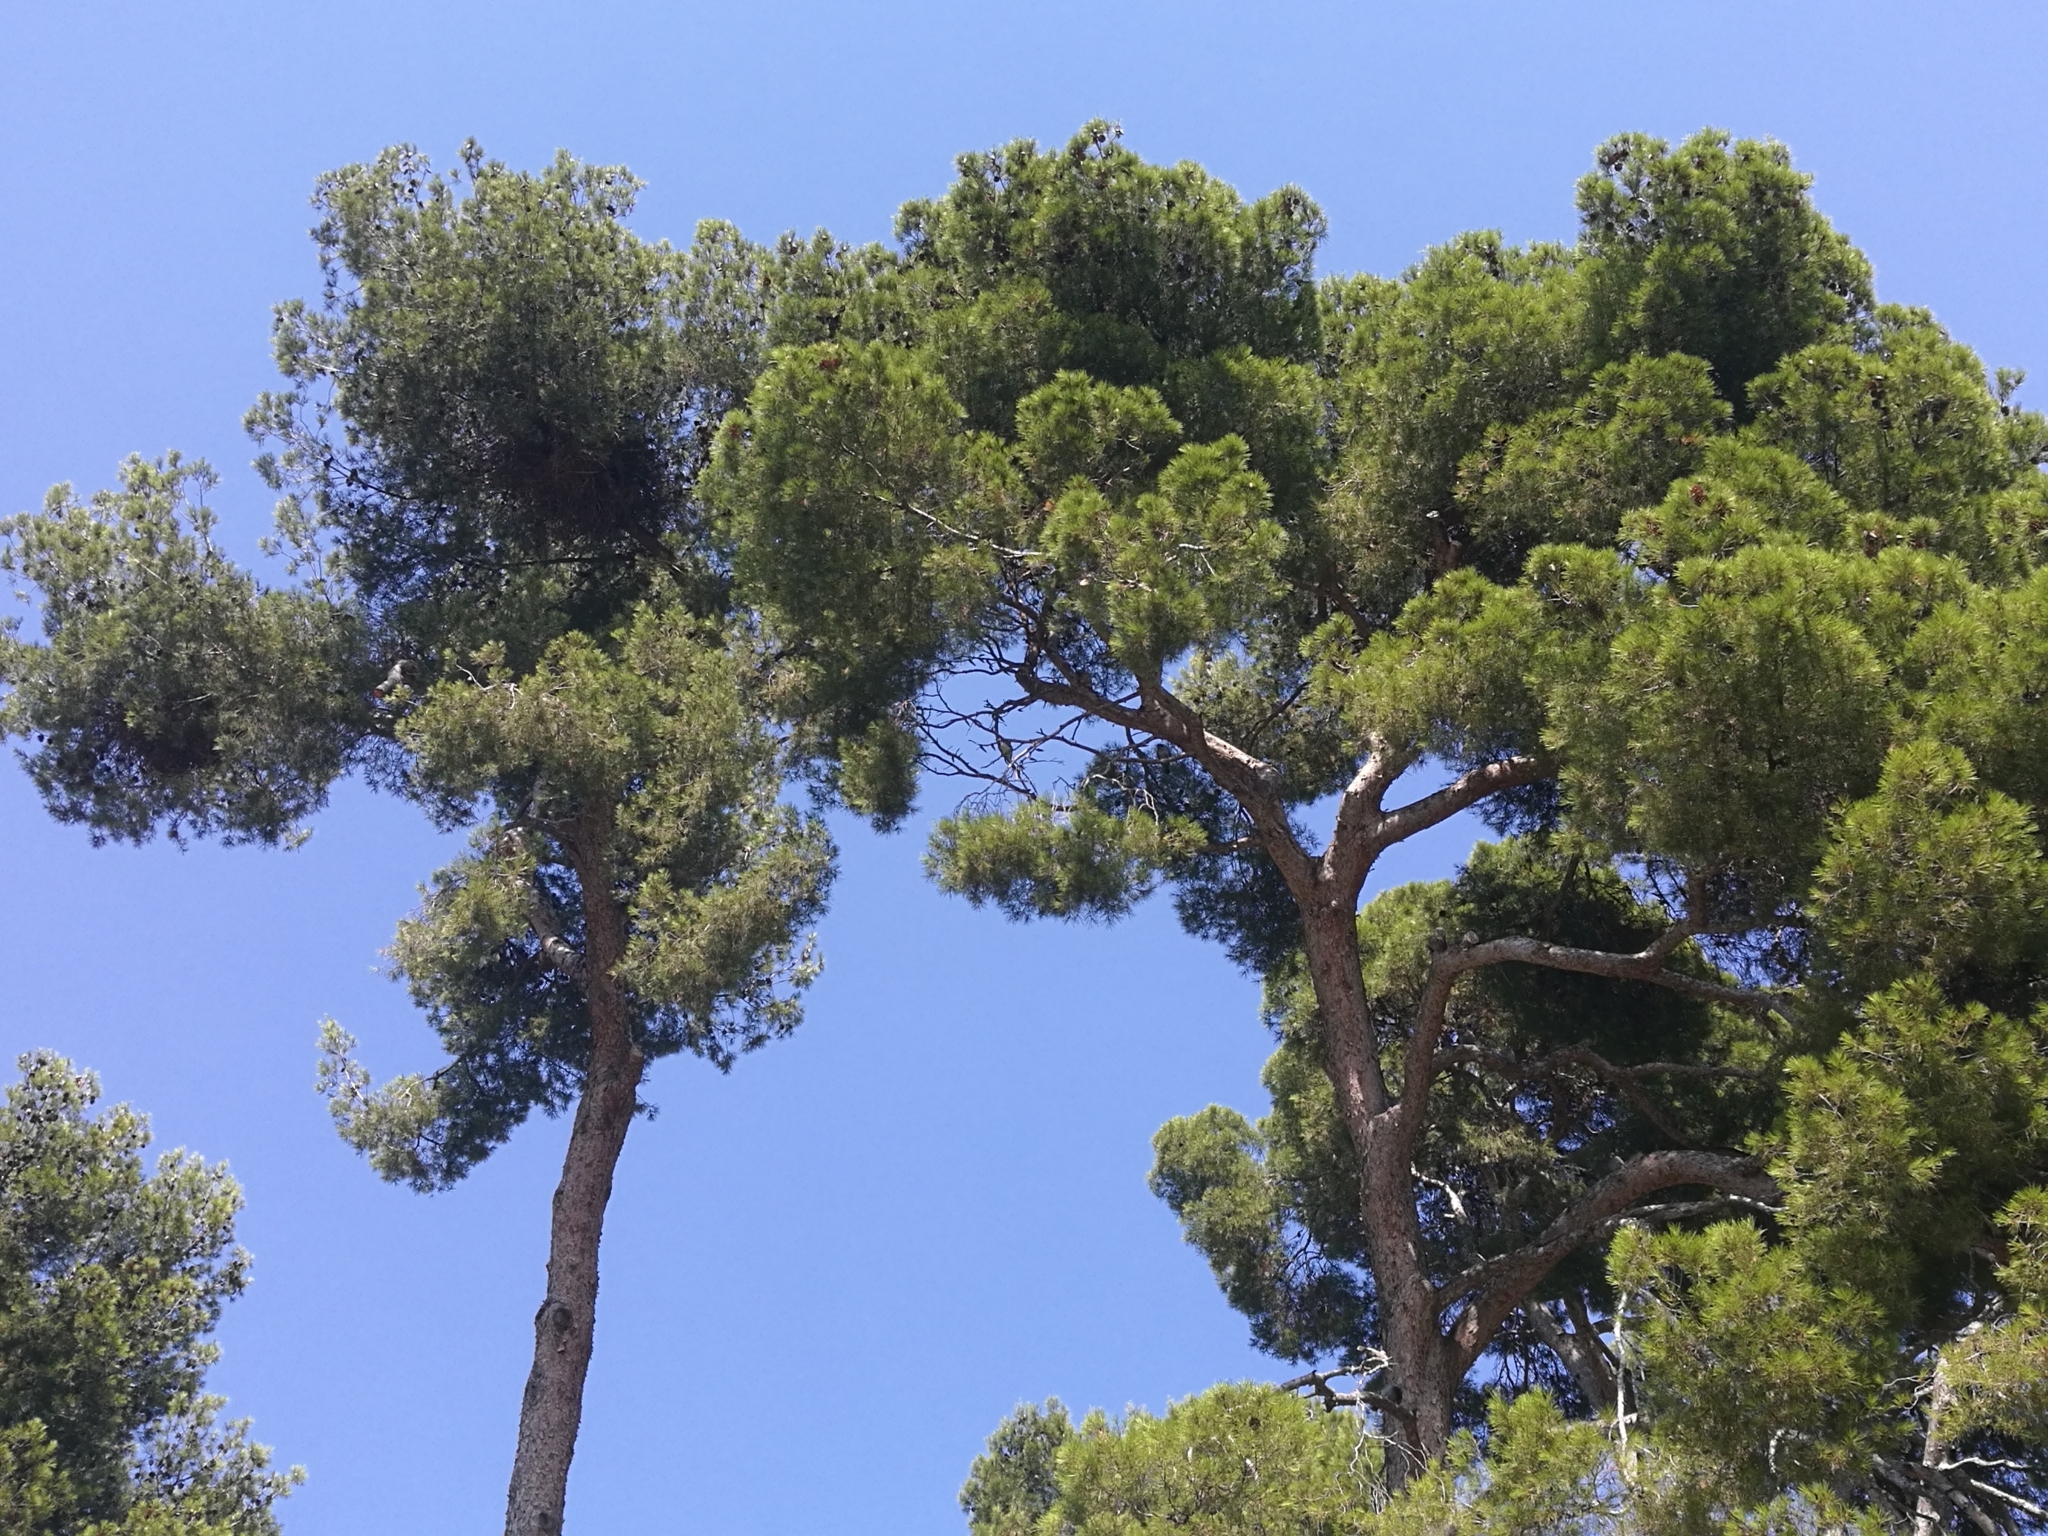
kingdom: Animalia
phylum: Chordata
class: Aves
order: Psittaciformes
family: Psittacidae
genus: Myiopsitta
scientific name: Myiopsitta monachus
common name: Monk parakeet
